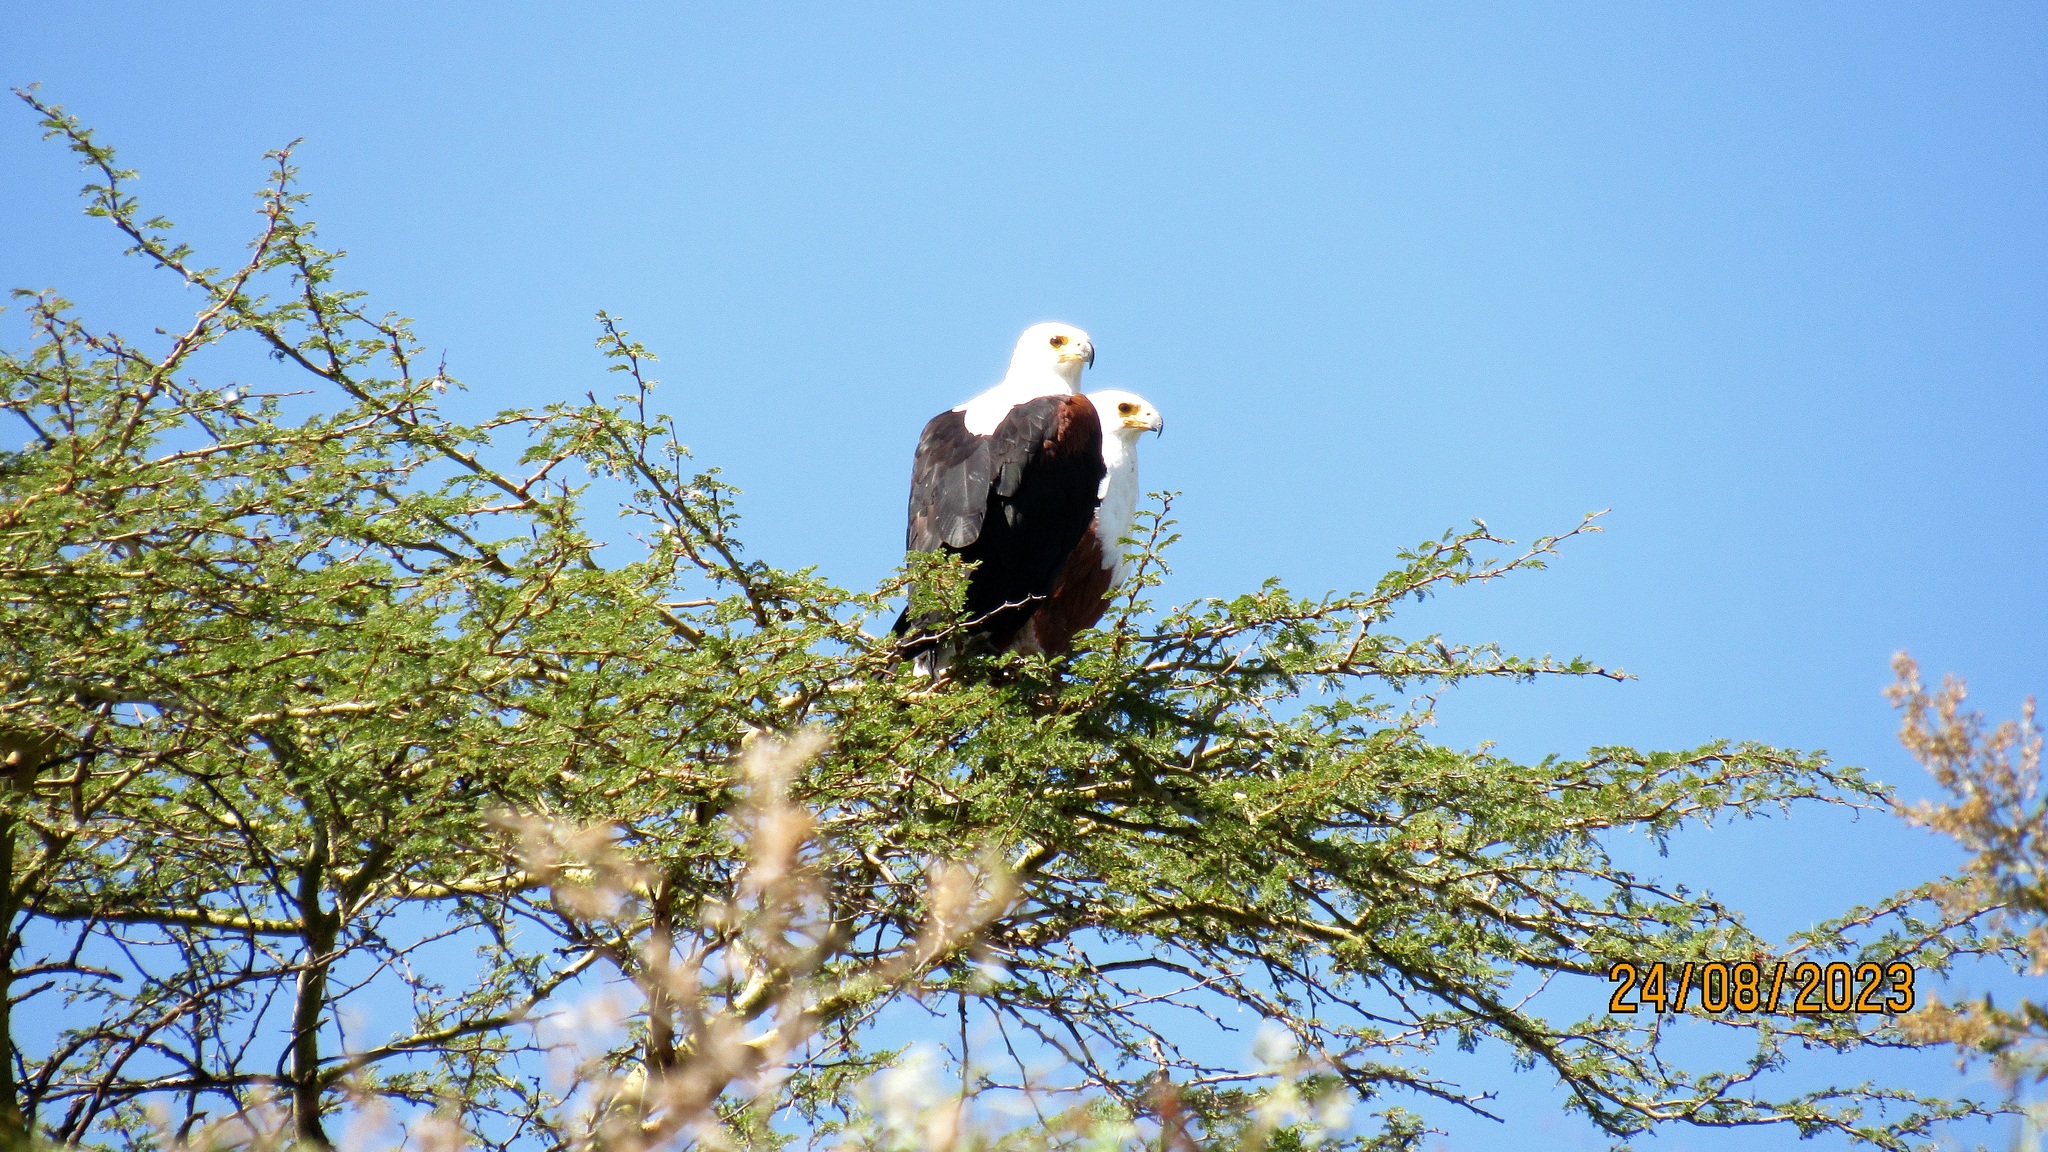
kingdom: Animalia
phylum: Chordata
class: Aves
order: Accipitriformes
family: Accipitridae
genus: Haliaeetus
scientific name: Haliaeetus vocifer
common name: African fish eagle
